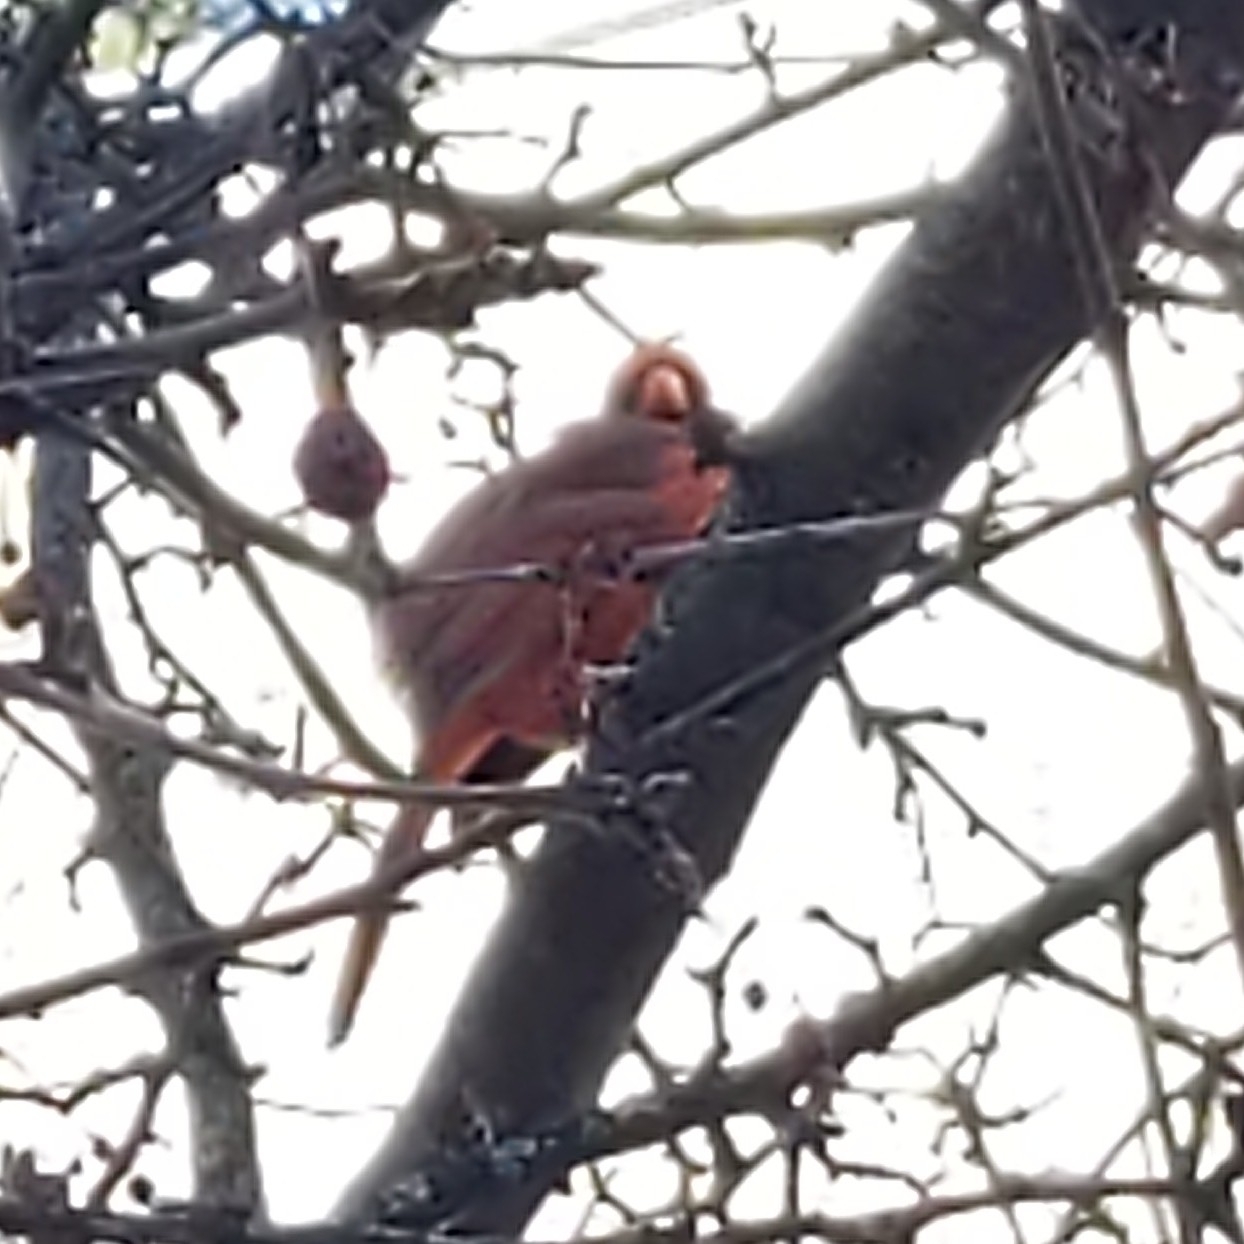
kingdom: Animalia
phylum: Chordata
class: Aves
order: Passeriformes
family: Cardinalidae
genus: Cardinalis
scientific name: Cardinalis cardinalis
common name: Northern cardinal
